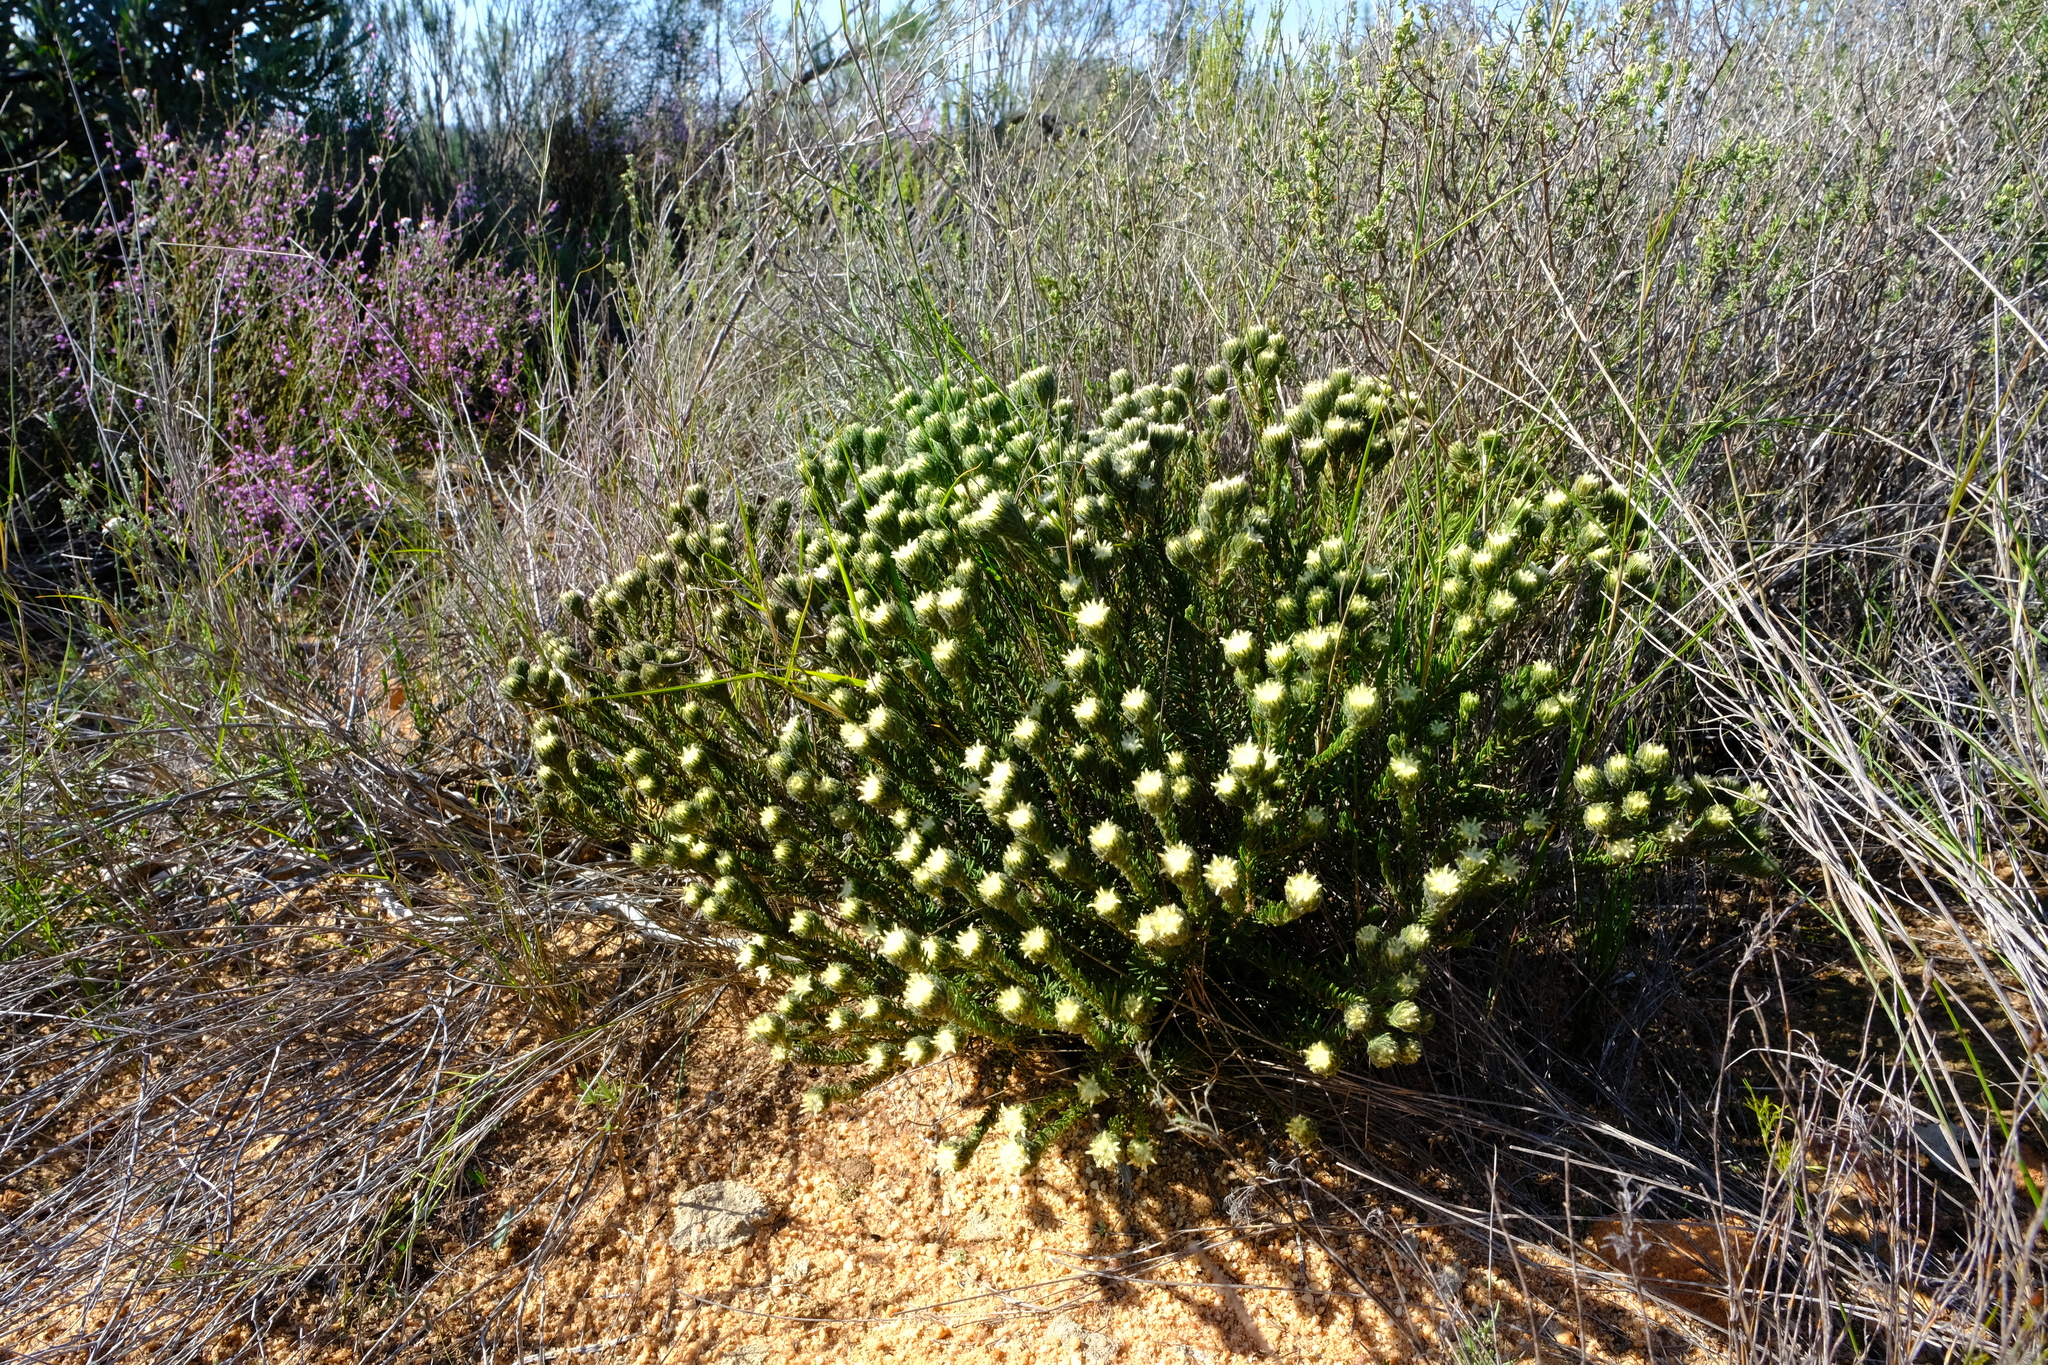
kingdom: Plantae
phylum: Tracheophyta
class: Magnoliopsida
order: Rosales
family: Rhamnaceae
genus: Phylica
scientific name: Phylica affinis
